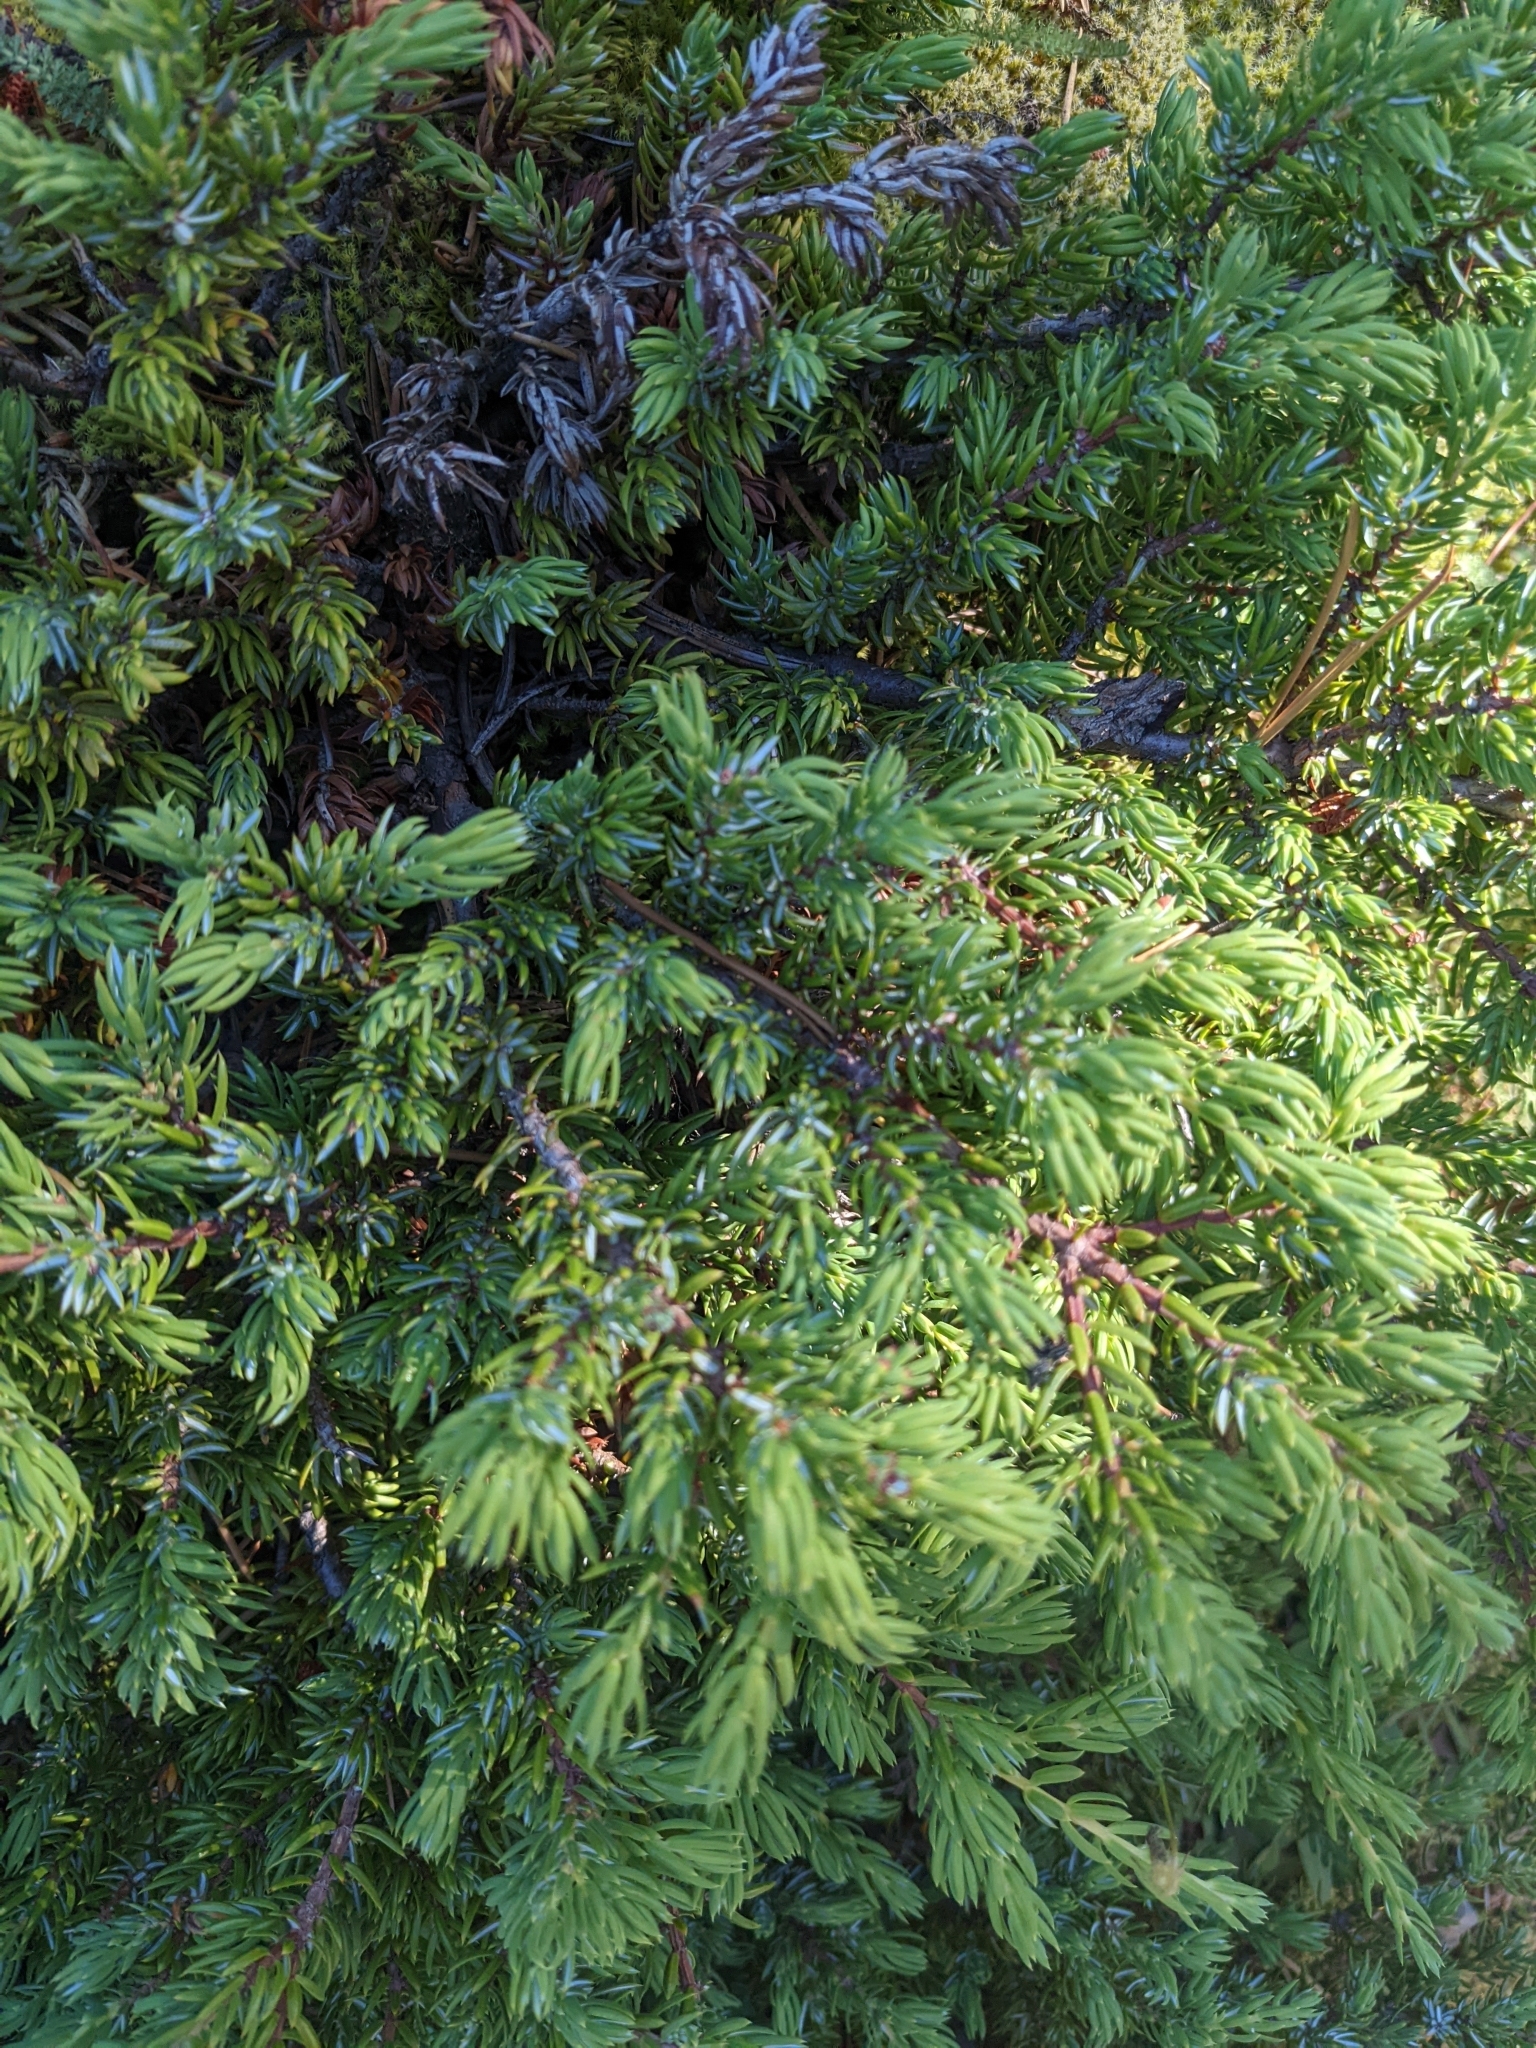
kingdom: Plantae
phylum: Tracheophyta
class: Pinopsida
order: Pinales
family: Cupressaceae
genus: Juniperus
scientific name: Juniperus communis
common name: Common juniper
